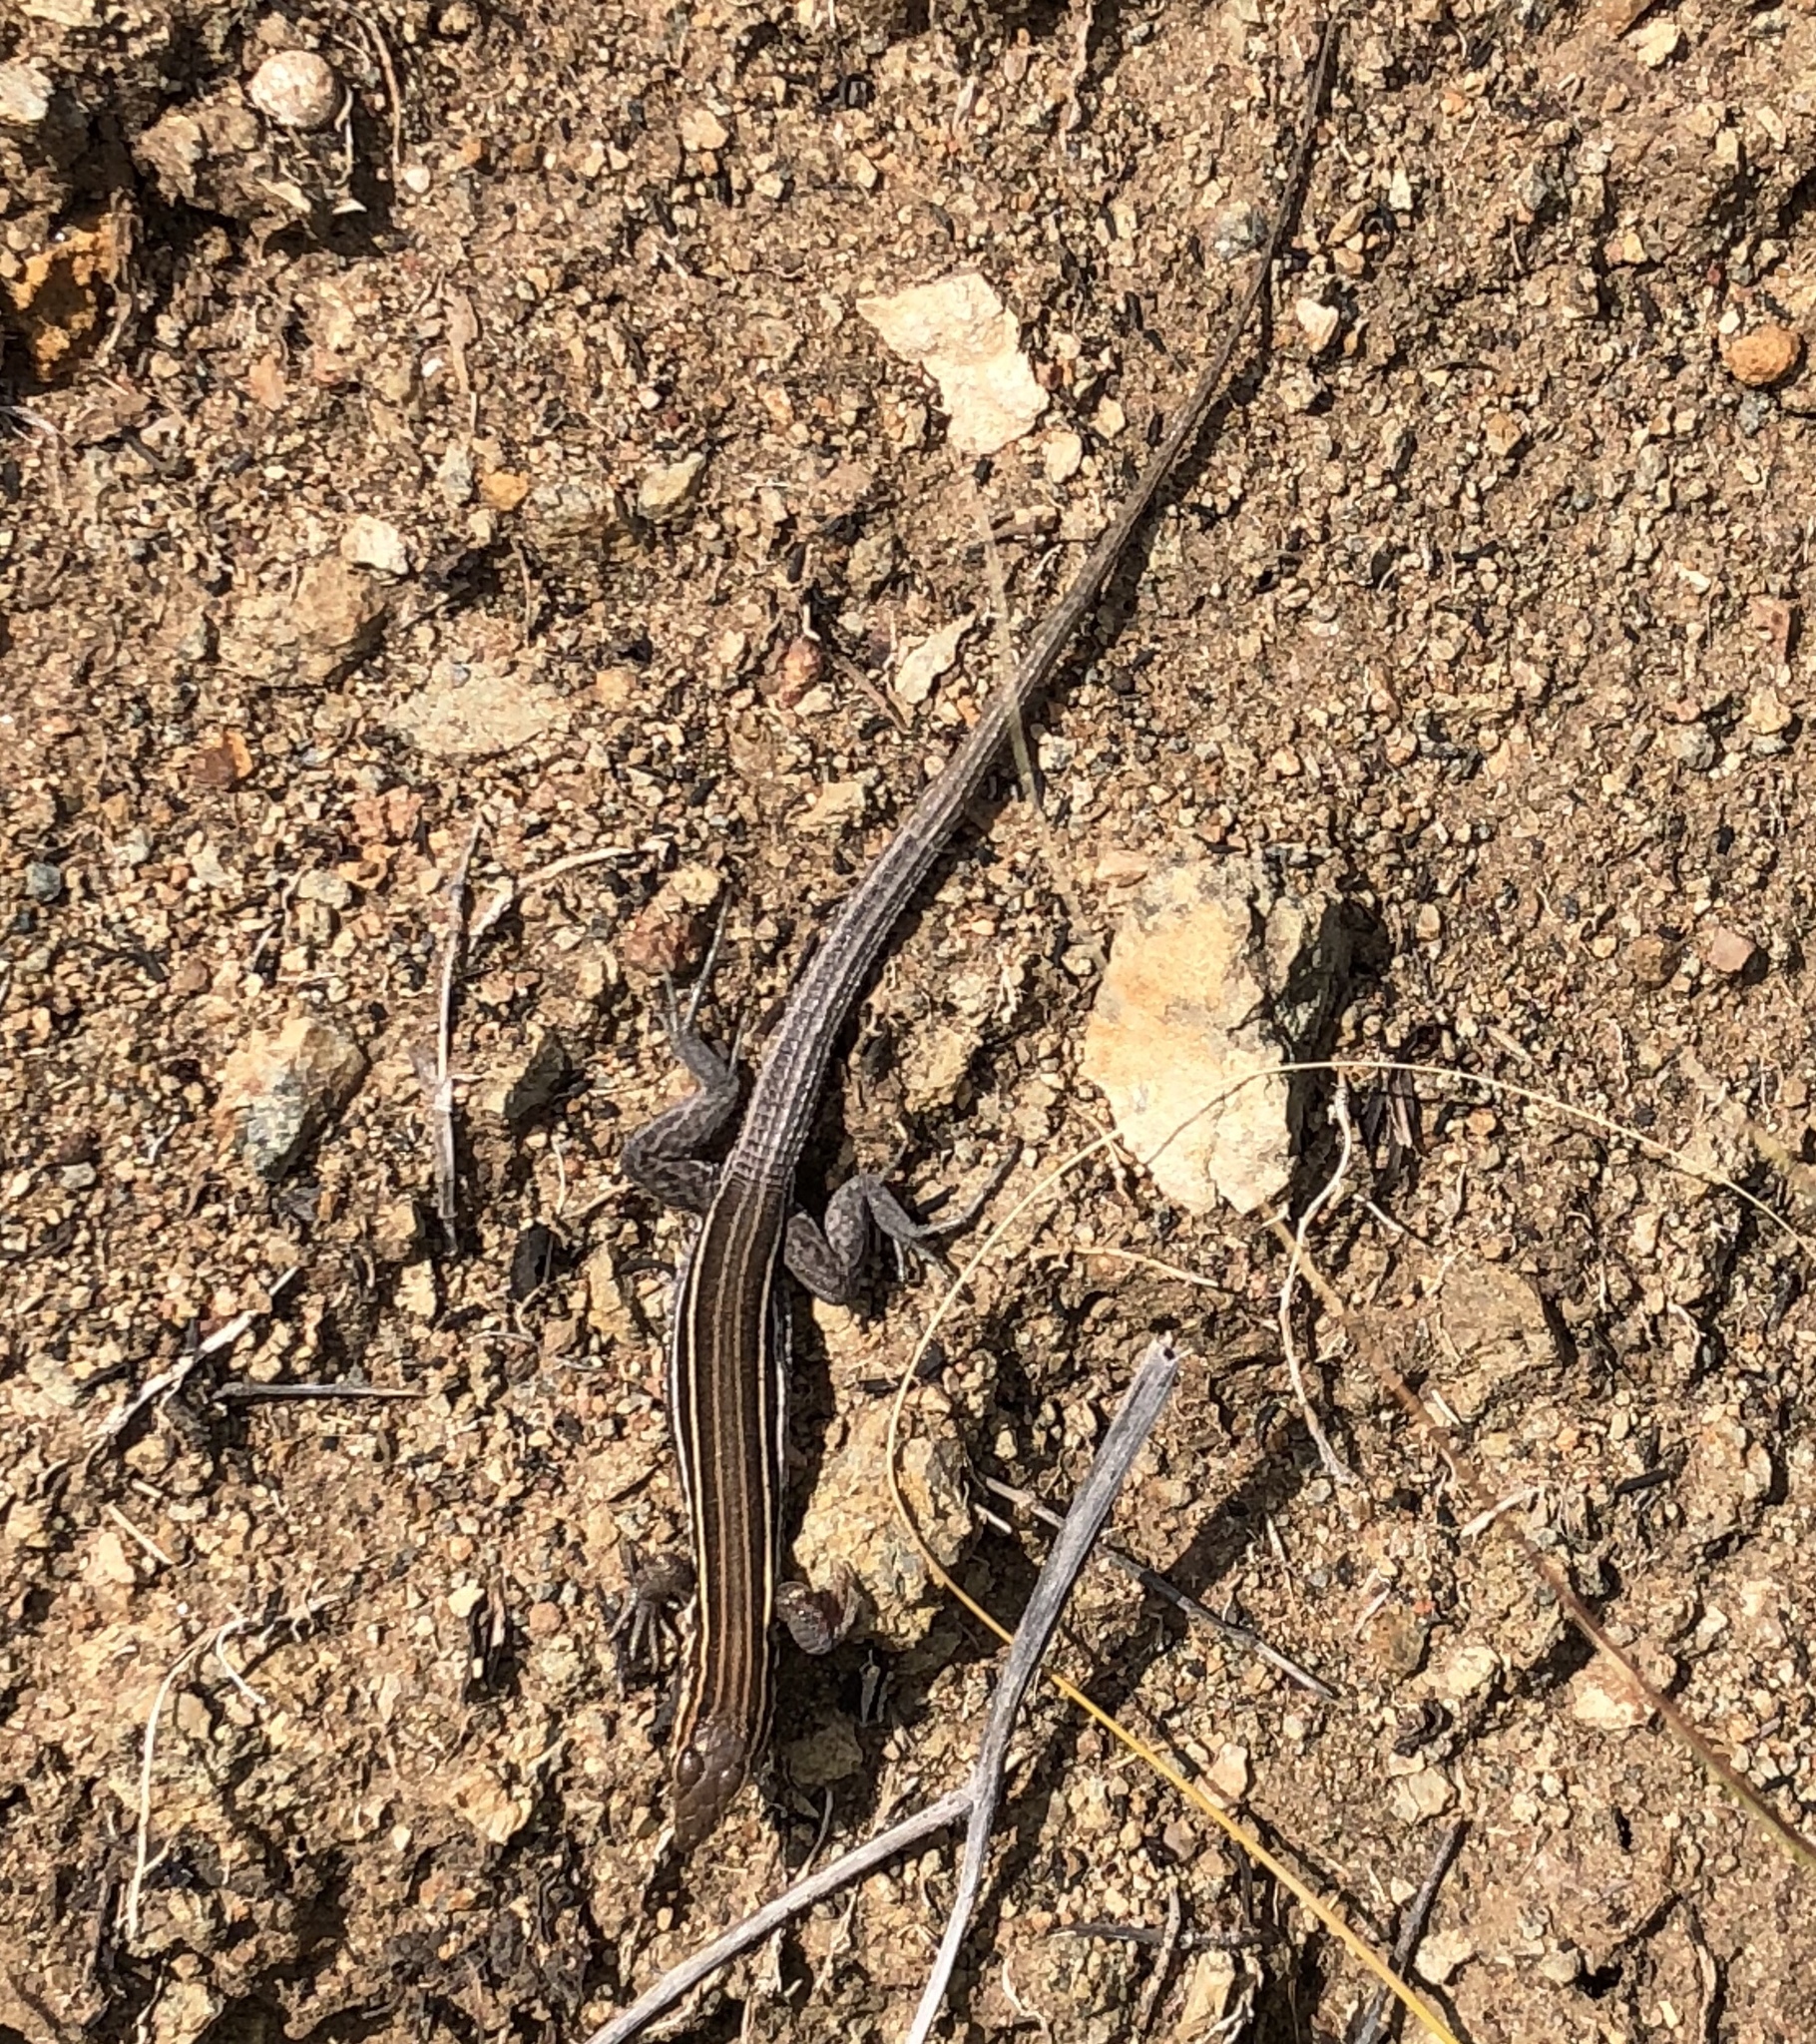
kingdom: Animalia
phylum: Chordata
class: Squamata
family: Teiidae
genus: Aspidoscelis
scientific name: Aspidoscelis hyperythrus
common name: Orange-throated race-runner
